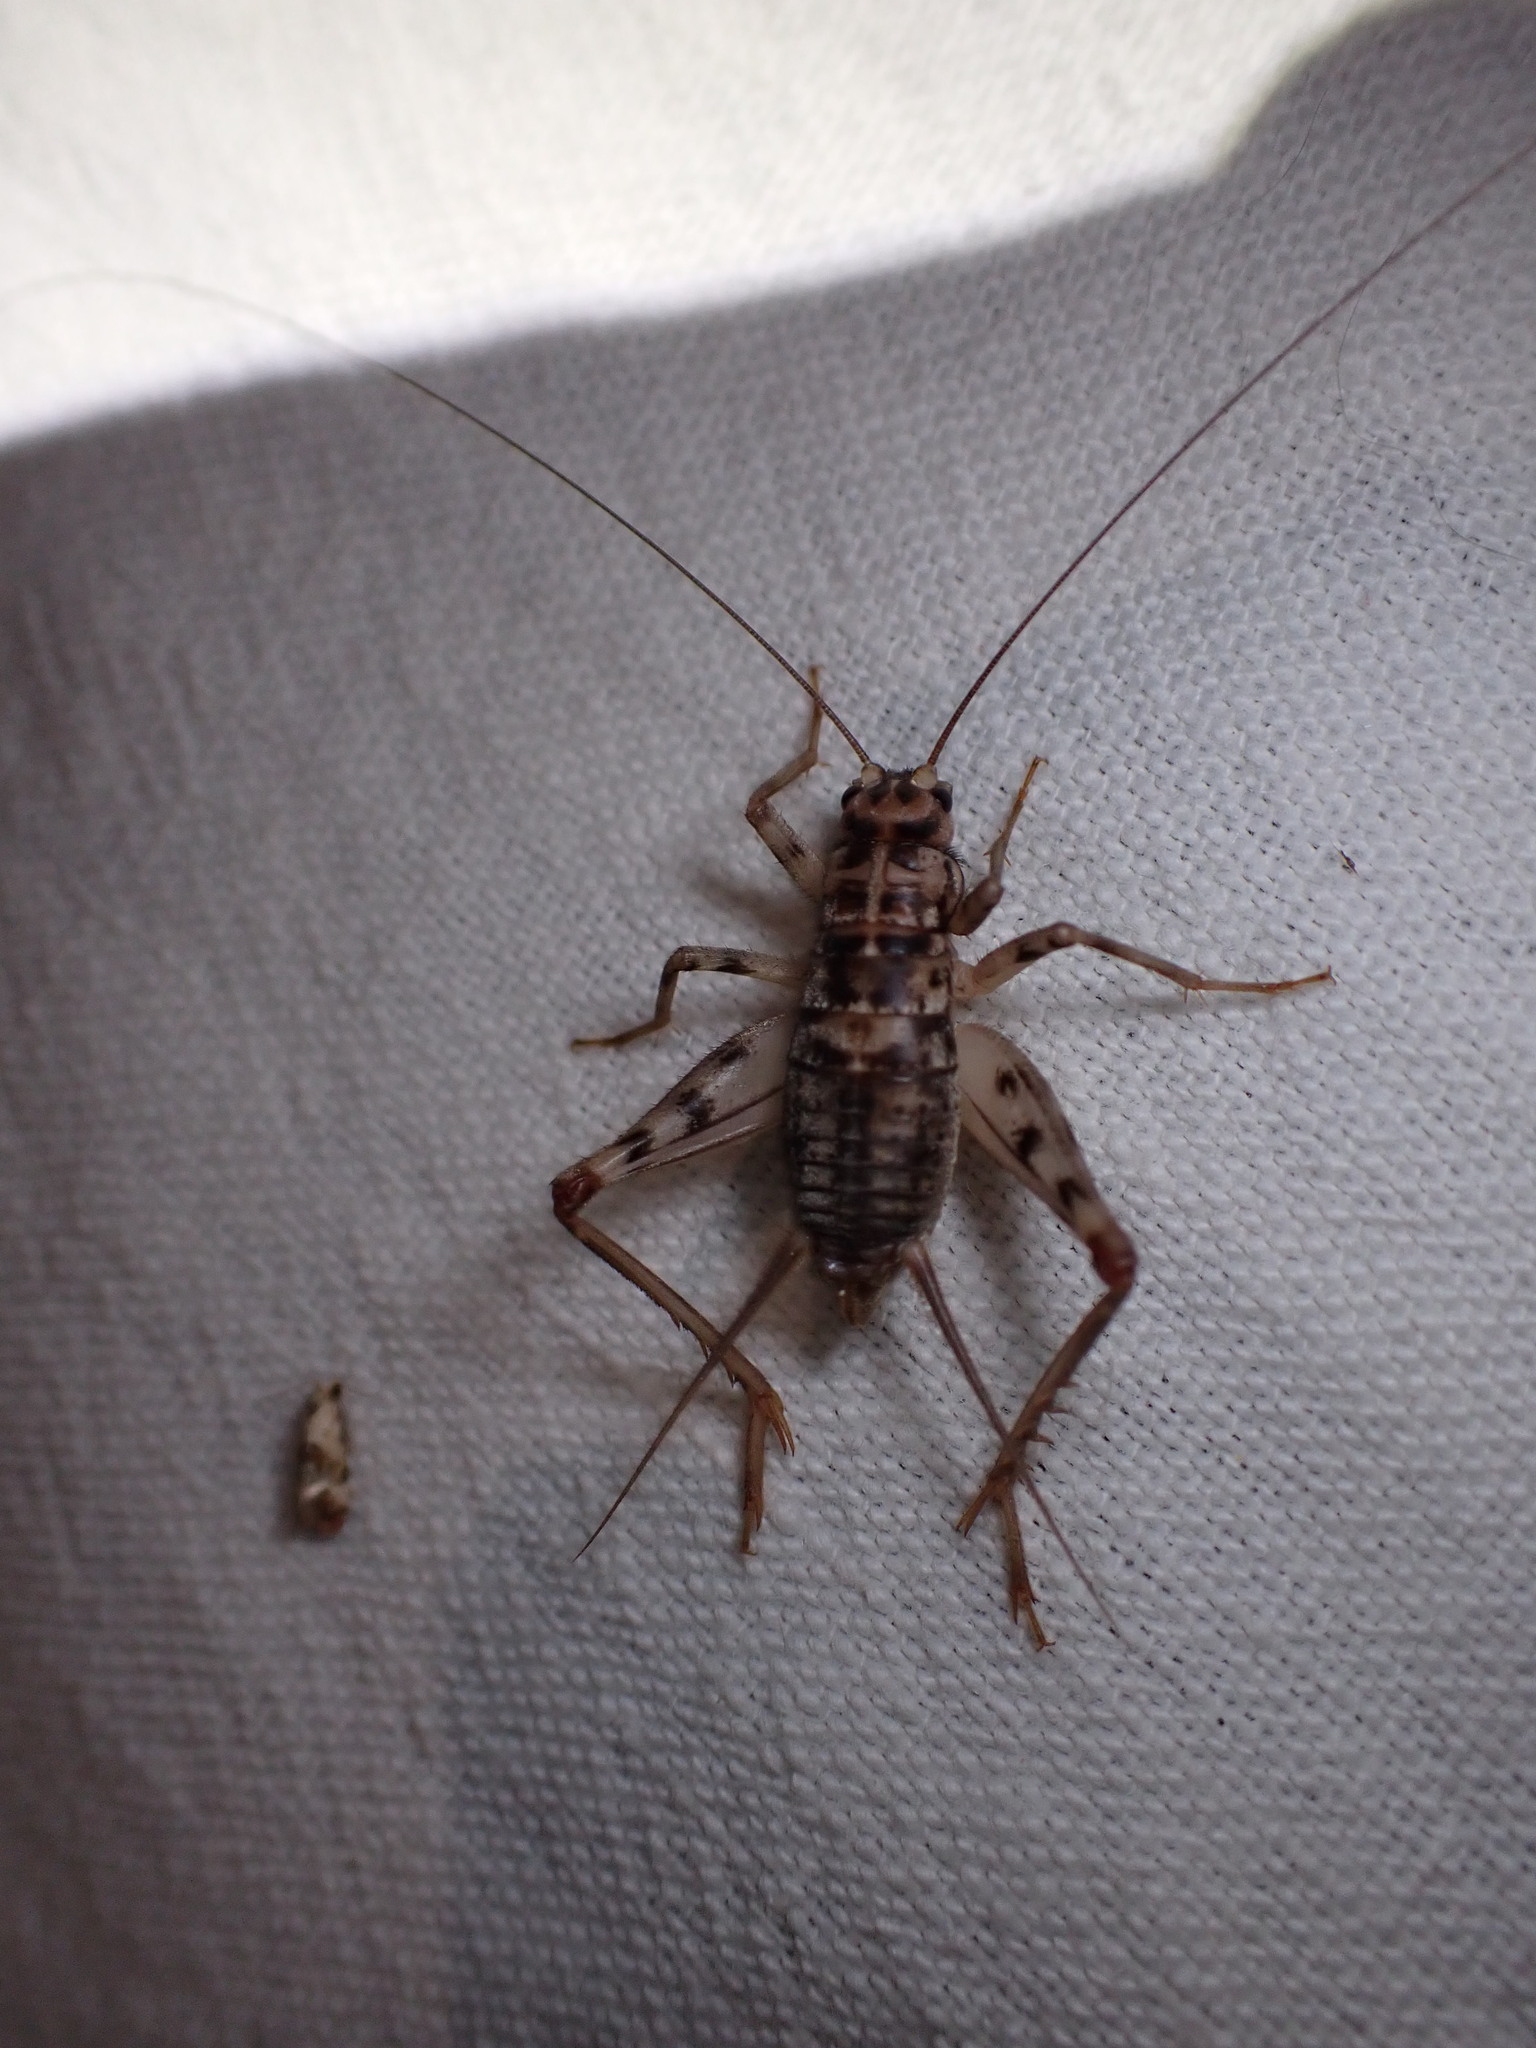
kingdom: Animalia
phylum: Arthropoda
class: Insecta
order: Orthoptera
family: Gryllidae
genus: Gryllomorpha
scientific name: Gryllomorpha dalmatina
